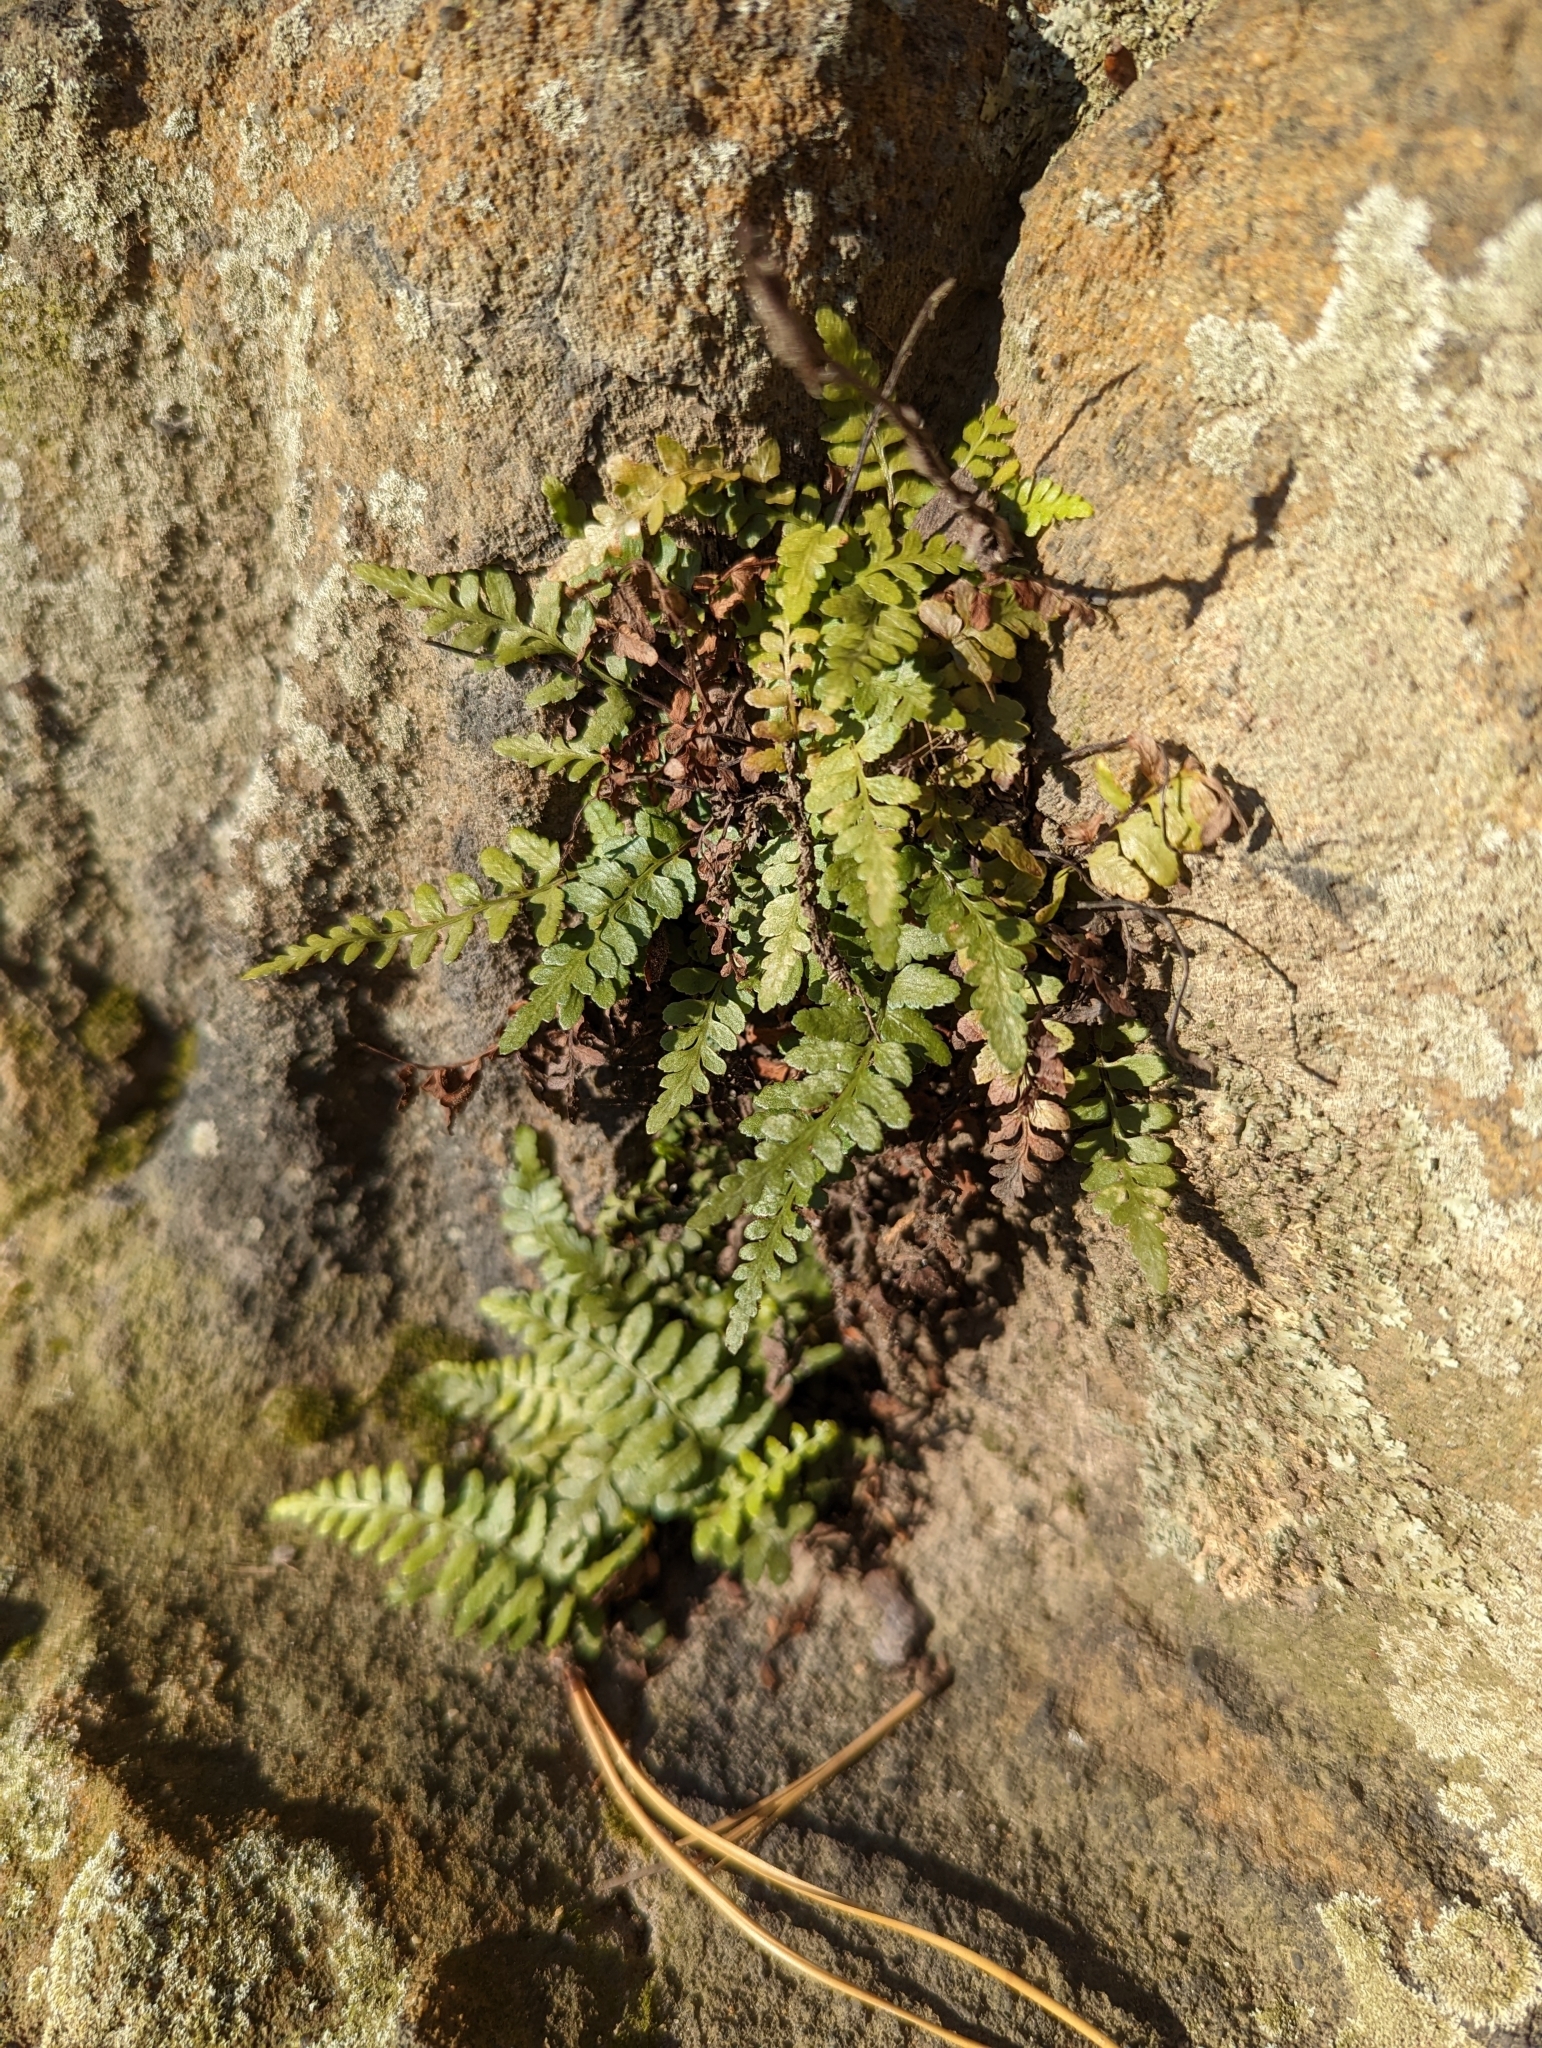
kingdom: Plantae
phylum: Tracheophyta
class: Polypodiopsida
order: Polypodiales
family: Aspleniaceae
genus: Asplenium
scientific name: Asplenium bradleyi
